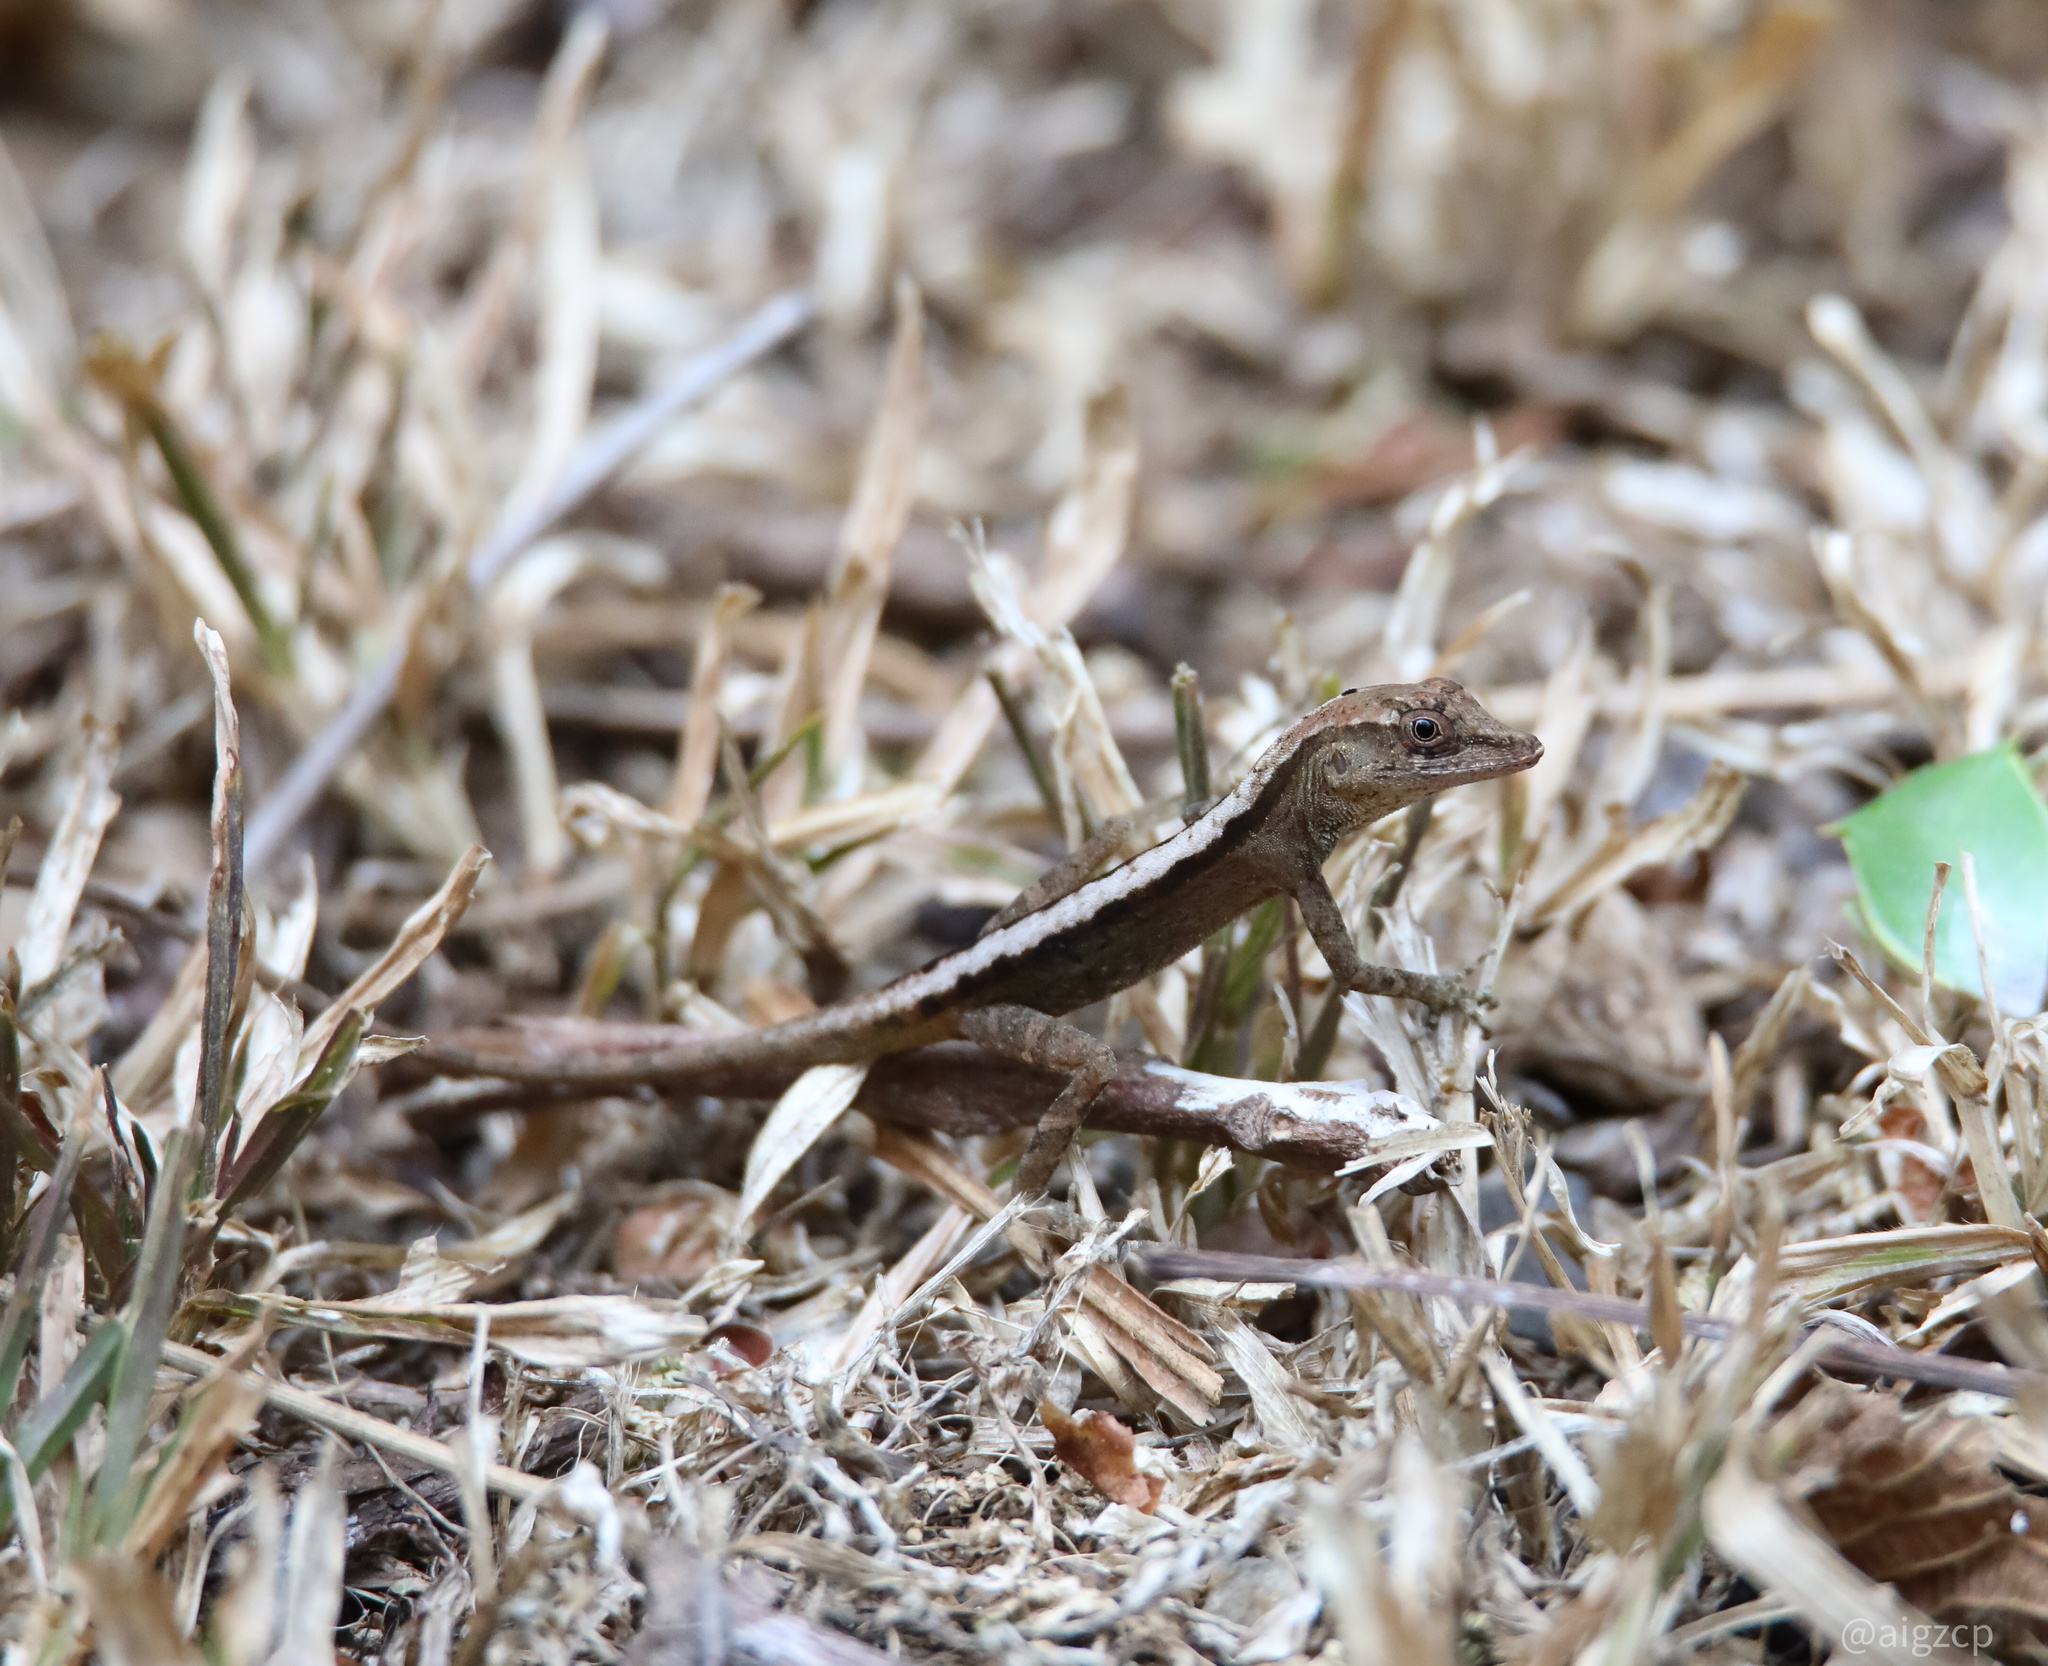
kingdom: Animalia
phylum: Chordata
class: Squamata
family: Dactyloidae
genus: Anolis
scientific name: Anolis gaigei
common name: Gaige’s anole
